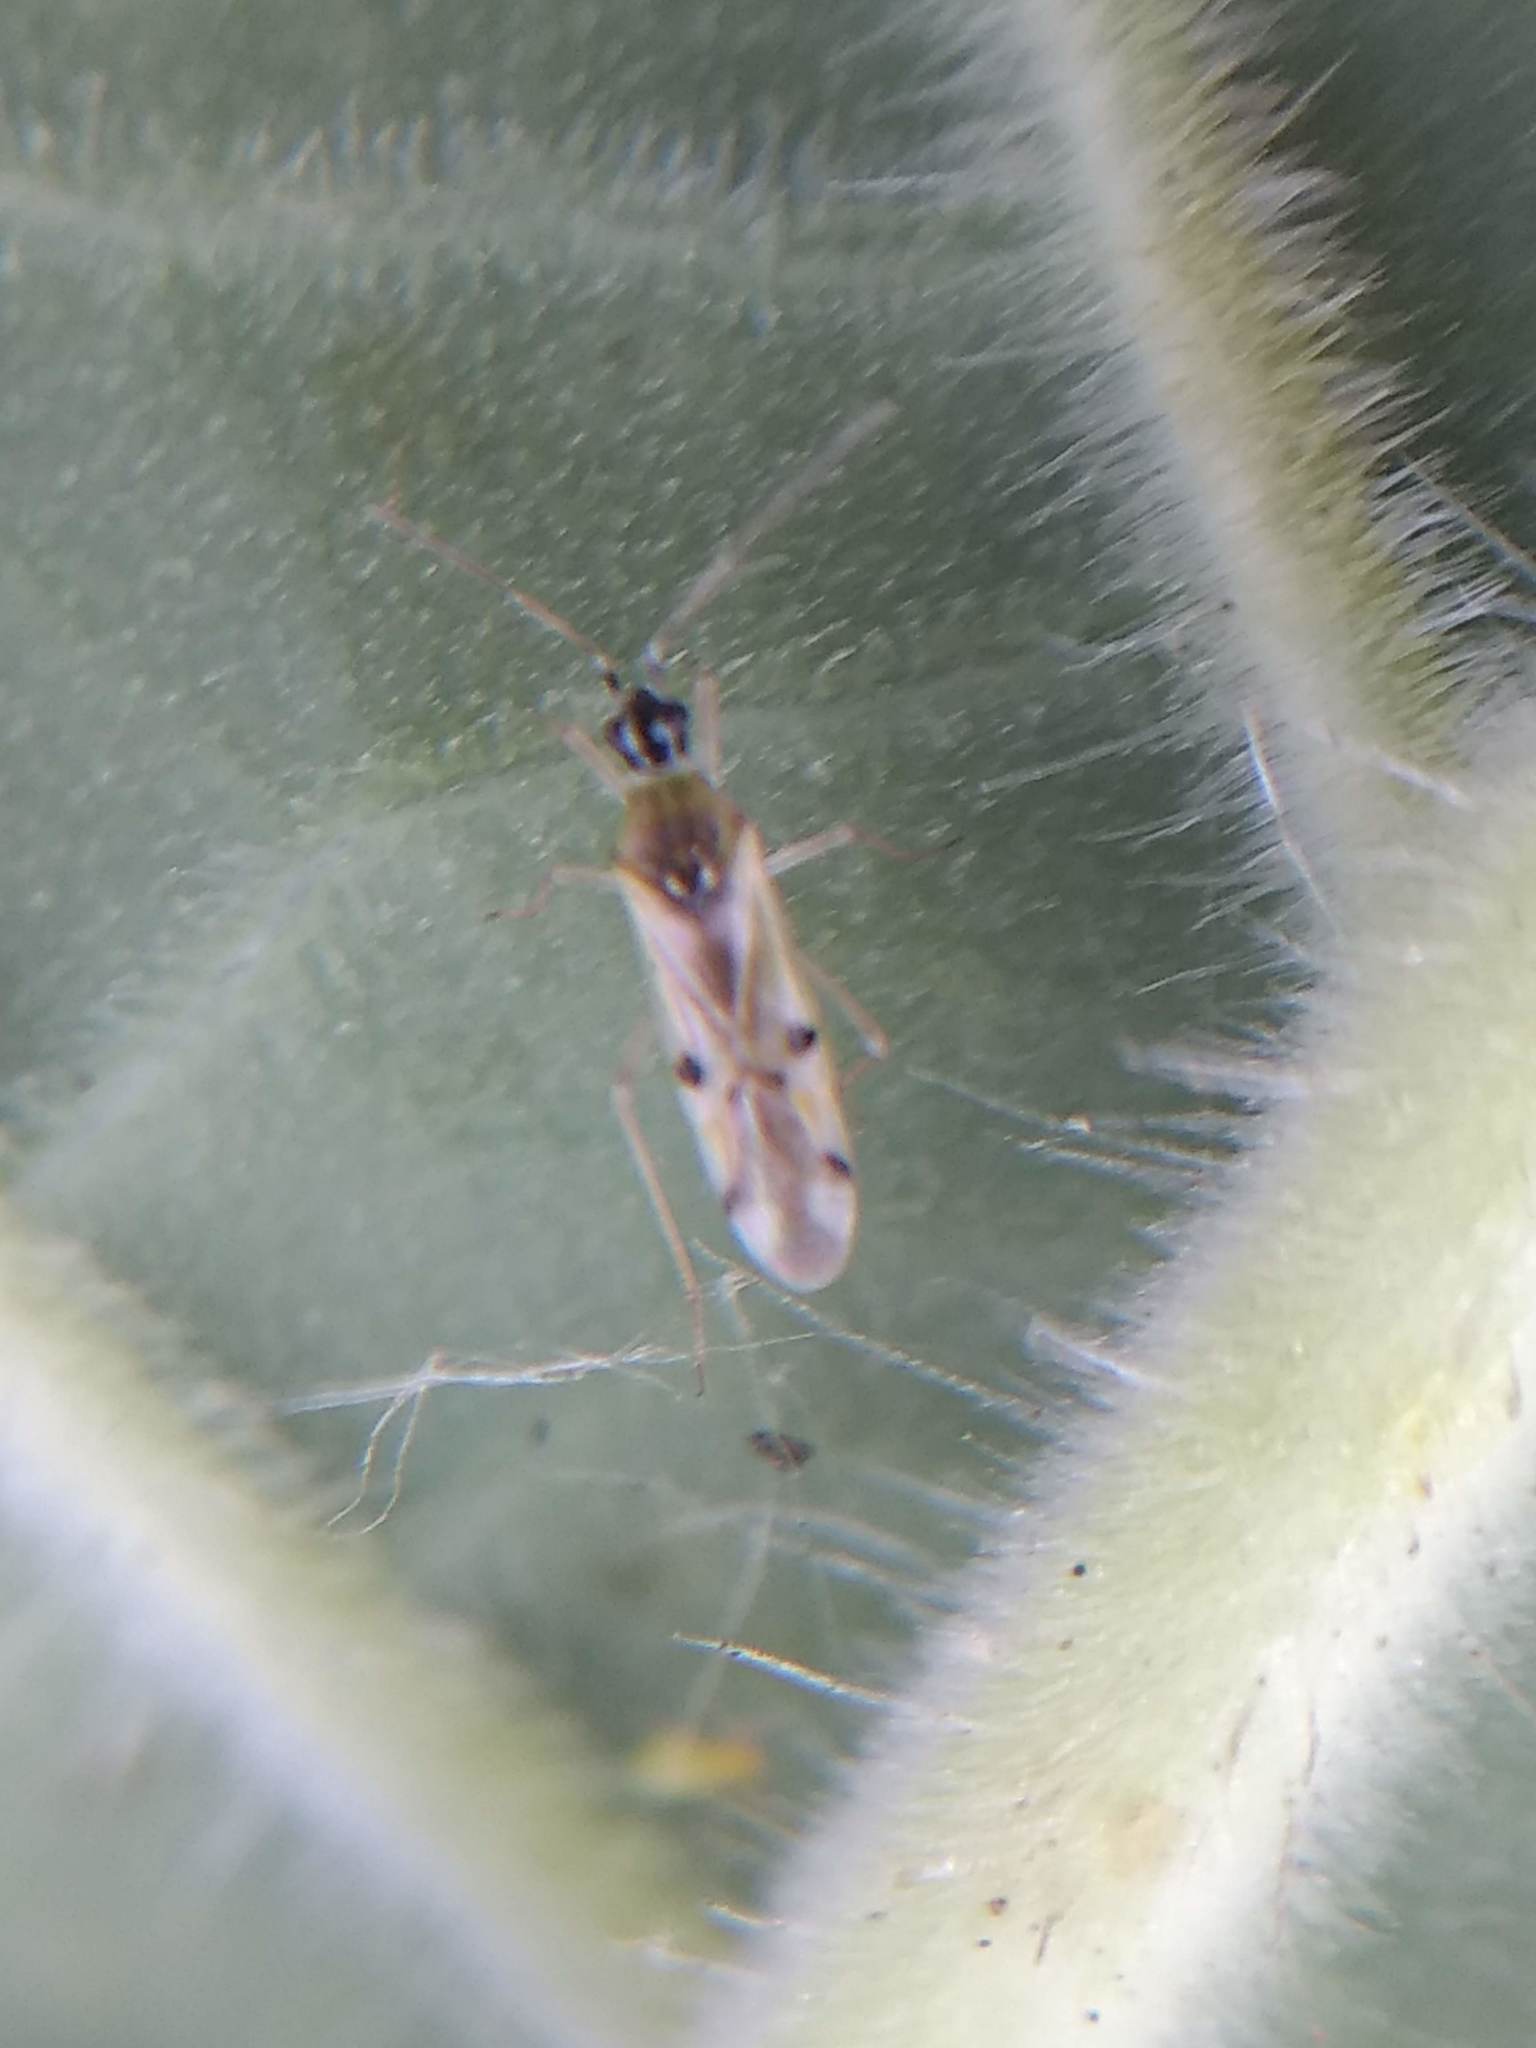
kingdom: Animalia
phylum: Arthropoda
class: Insecta
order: Hemiptera
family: Miridae
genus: Tupiocoris
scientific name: Tupiocoris notatus
